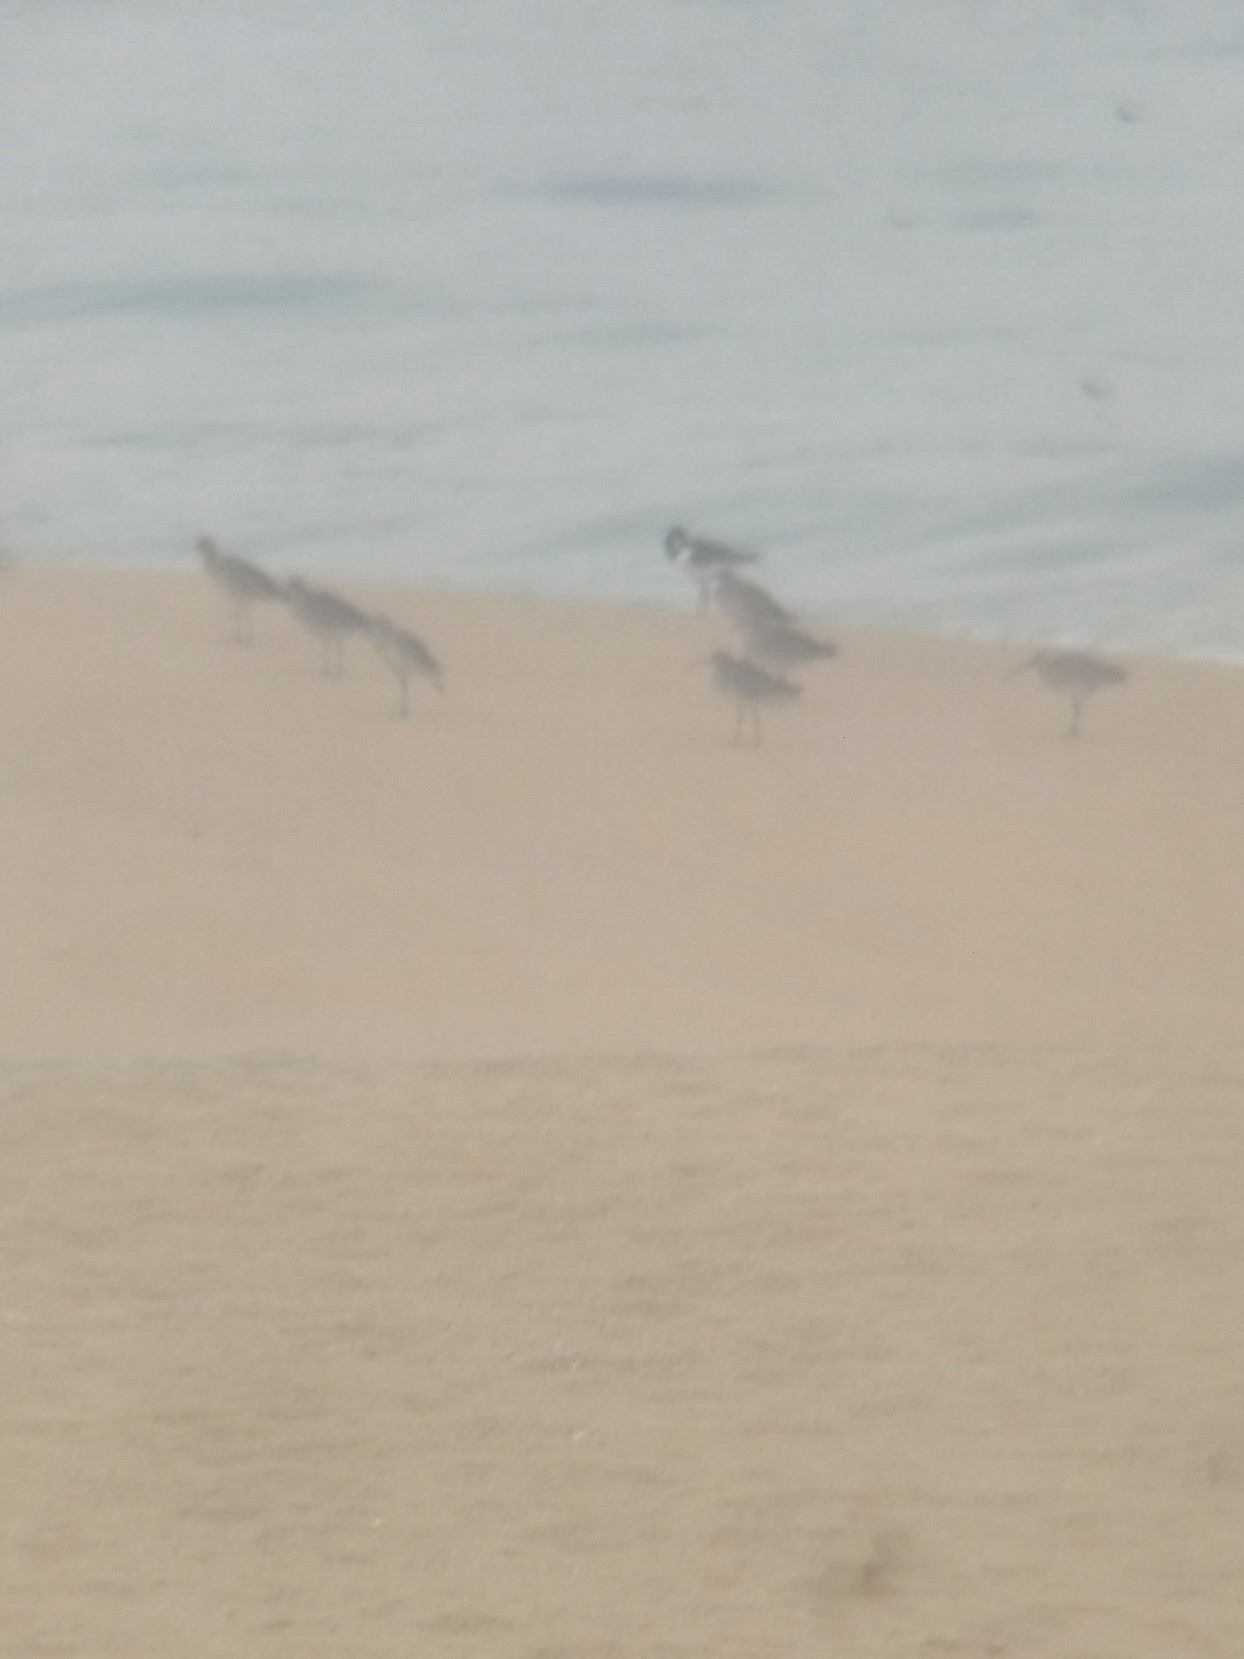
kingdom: Animalia
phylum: Chordata
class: Aves
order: Charadriiformes
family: Scolopacidae
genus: Numenius
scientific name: Numenius phaeopus
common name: Whimbrel
